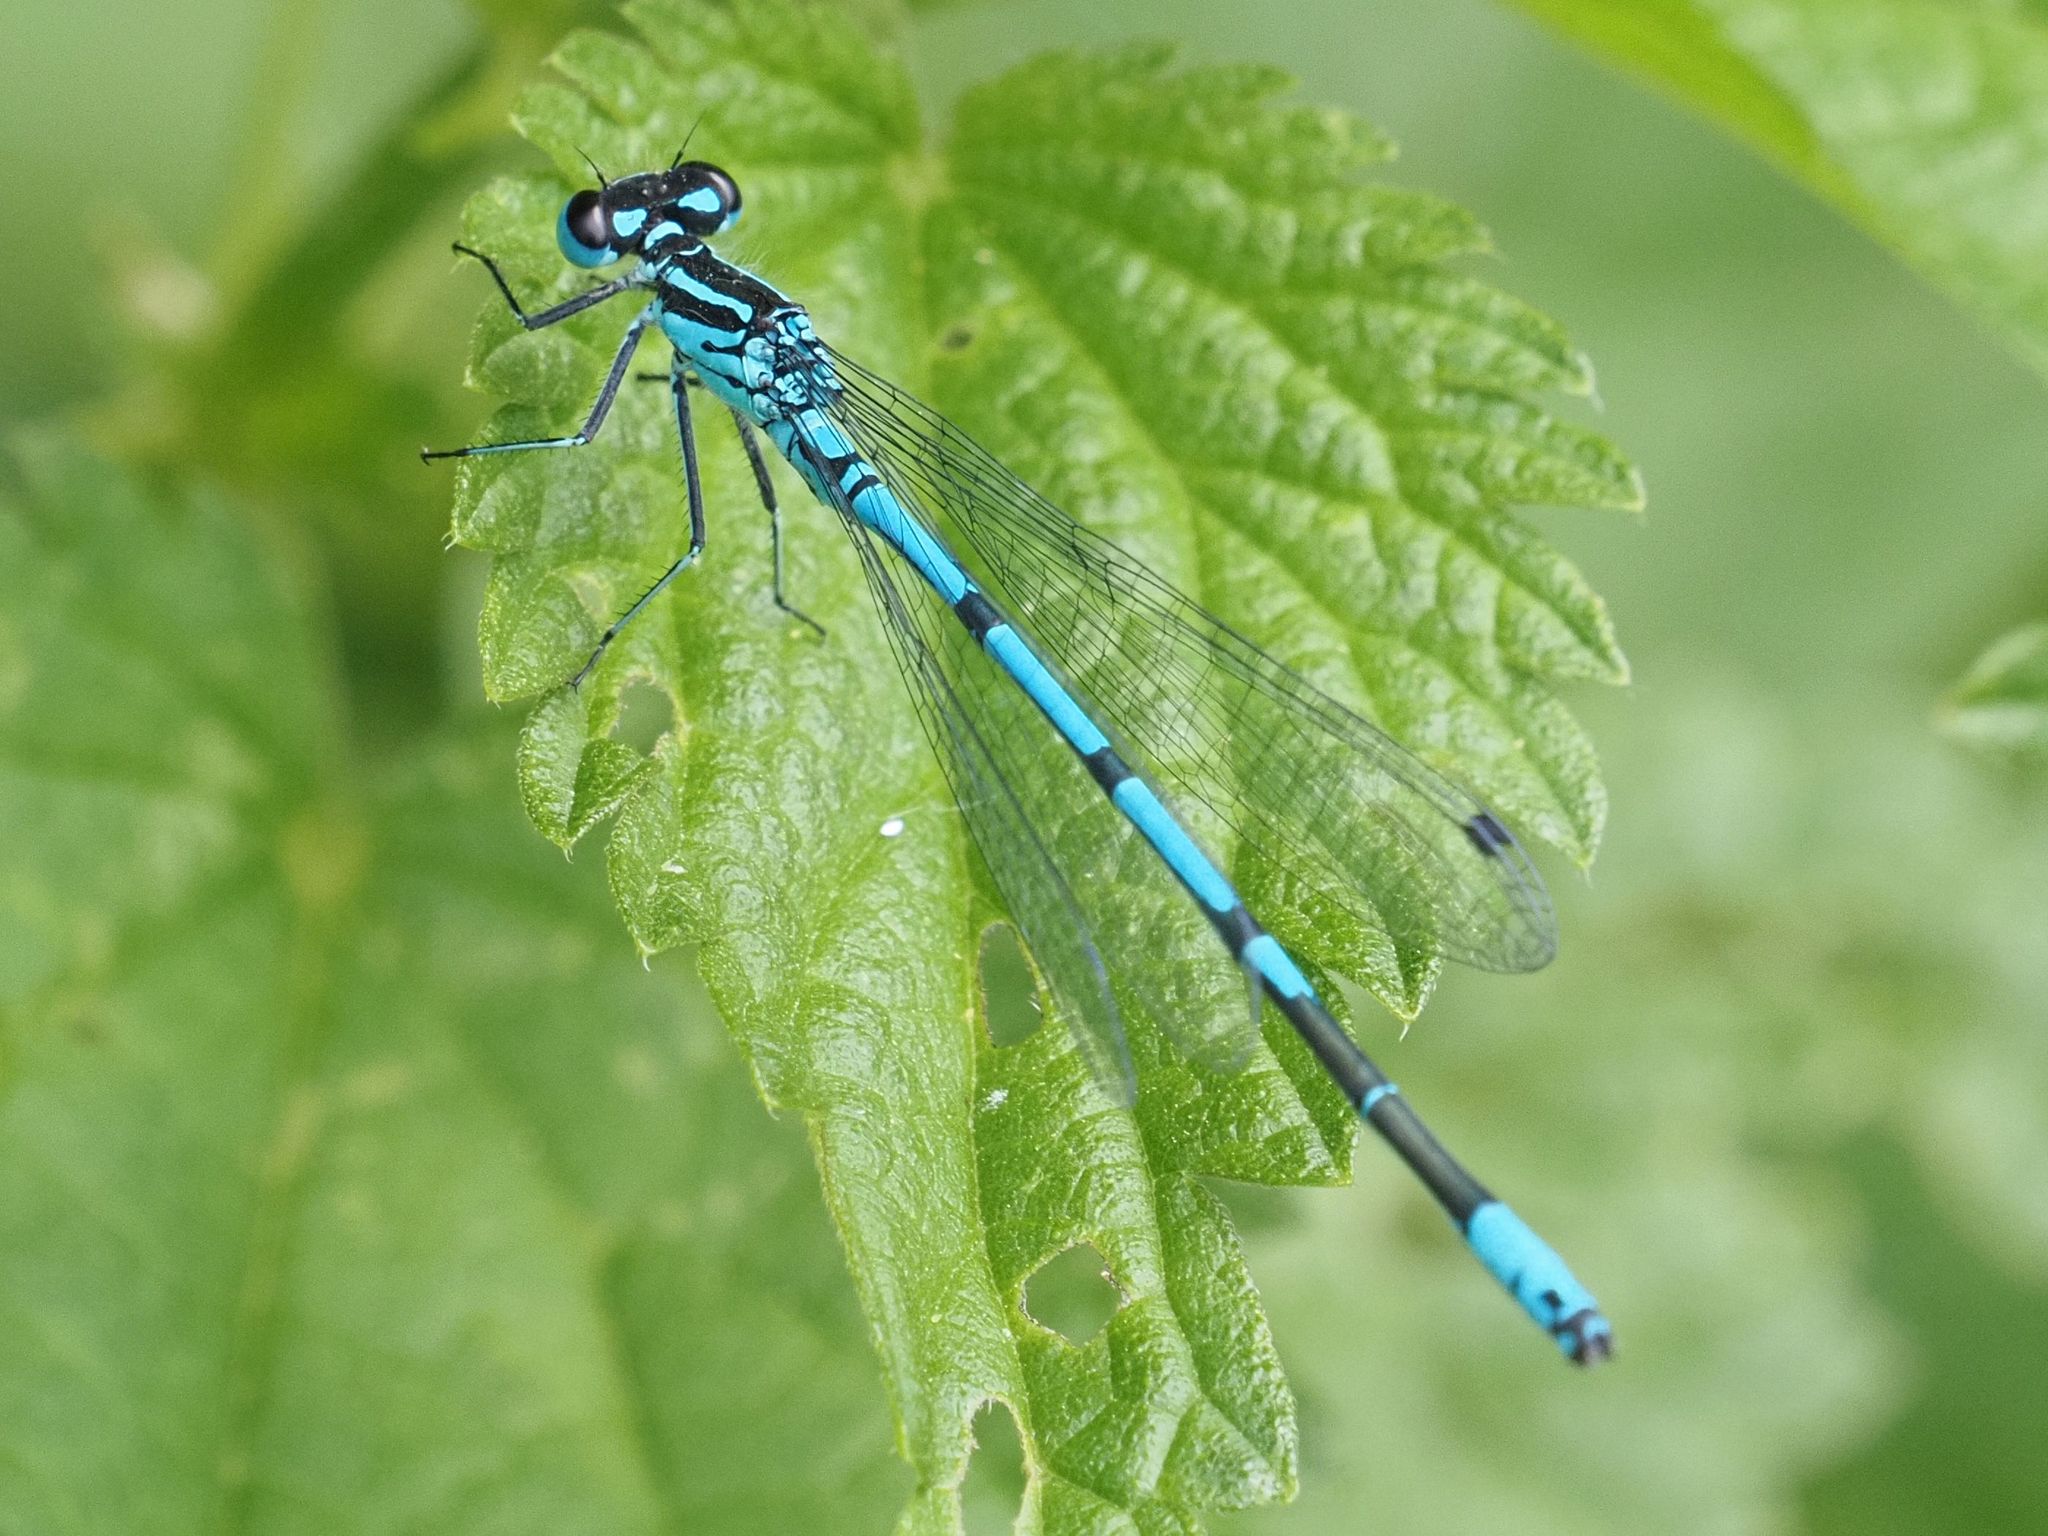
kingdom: Animalia
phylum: Arthropoda
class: Insecta
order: Odonata
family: Coenagrionidae
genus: Coenagrion
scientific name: Coenagrion puella
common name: Azure damselfly
